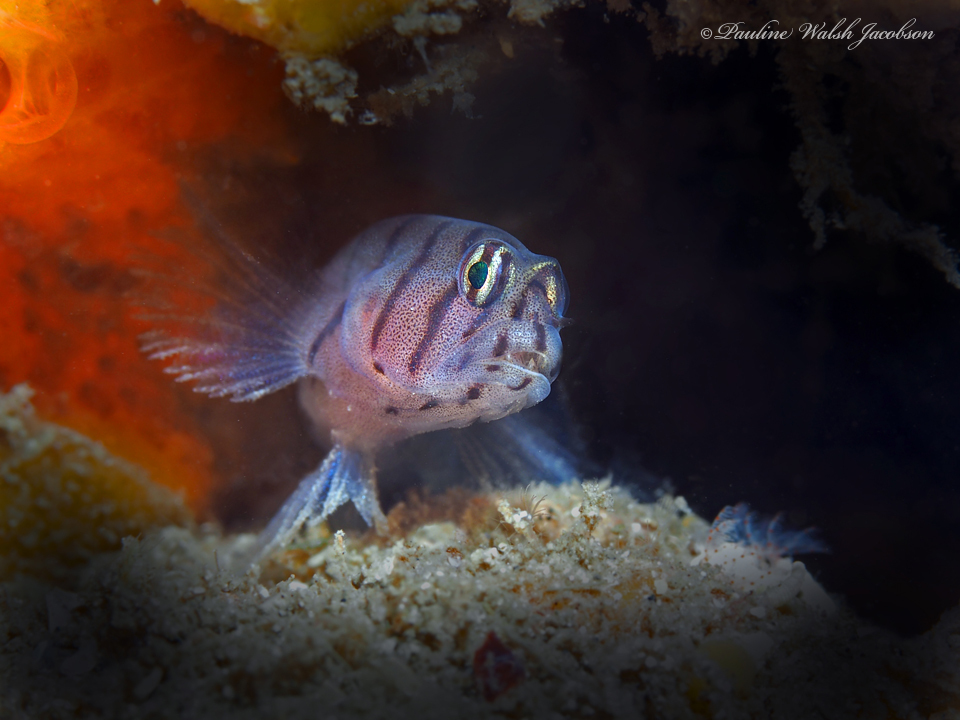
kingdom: Animalia
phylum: Chordata
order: Perciformes
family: Gobiidae
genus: Tigrigobius
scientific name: Tigrigobius macrodon
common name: Tiger goby
